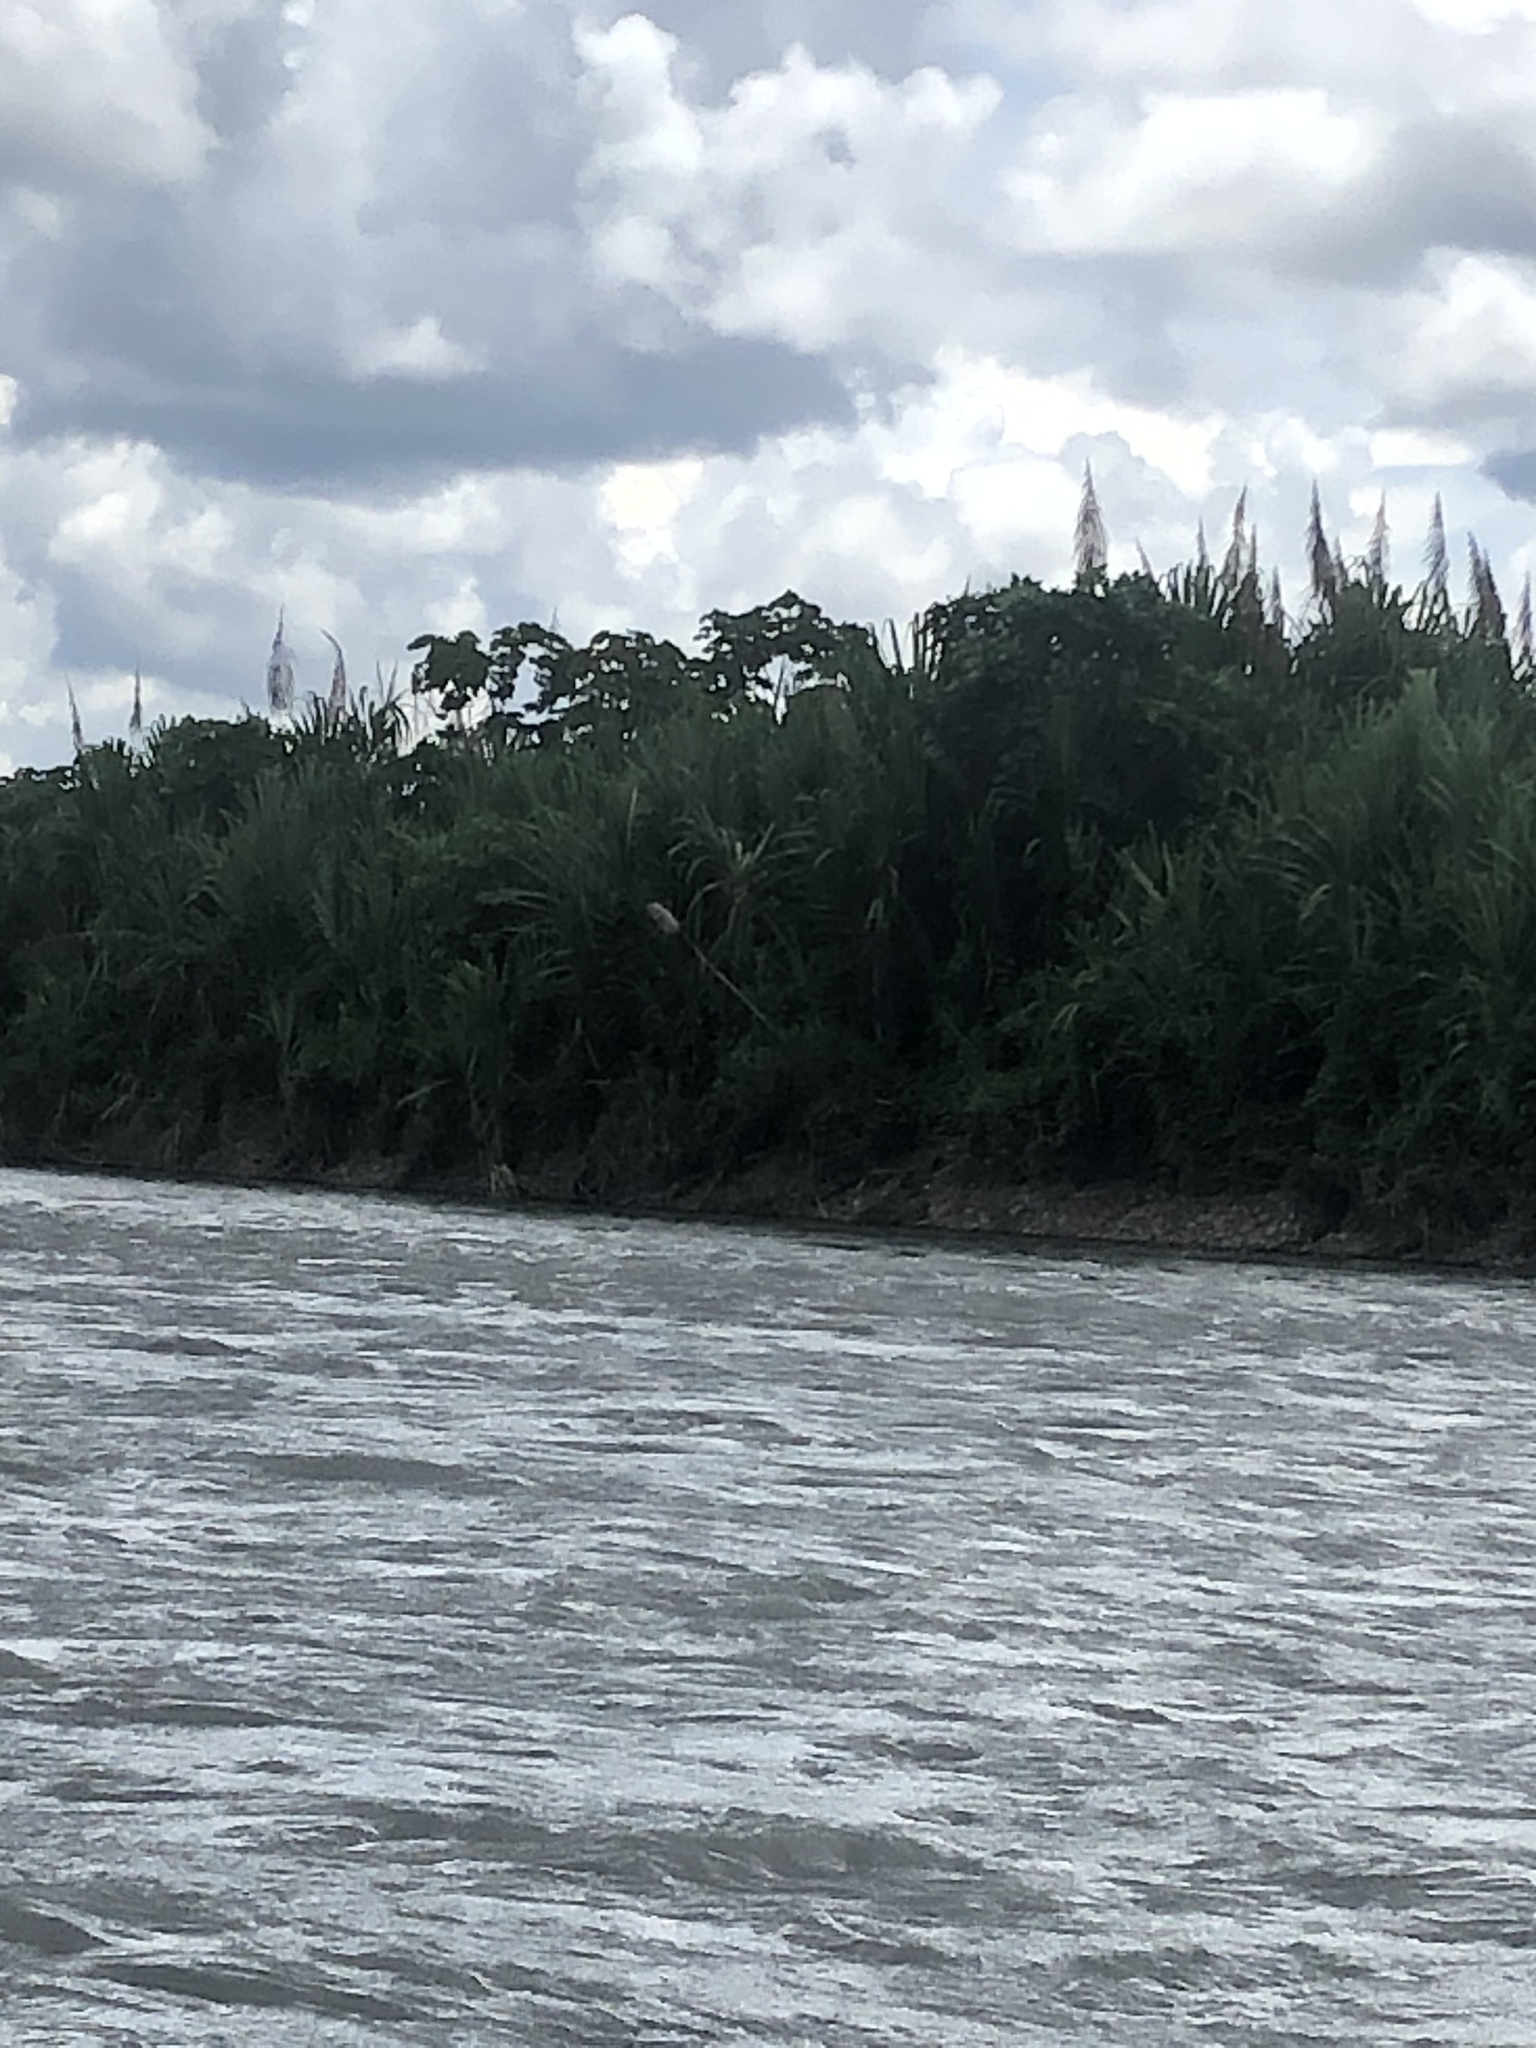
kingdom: Plantae
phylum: Tracheophyta
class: Liliopsida
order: Poales
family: Poaceae
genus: Gynerium
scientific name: Gynerium sagittatum
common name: Wild cane
